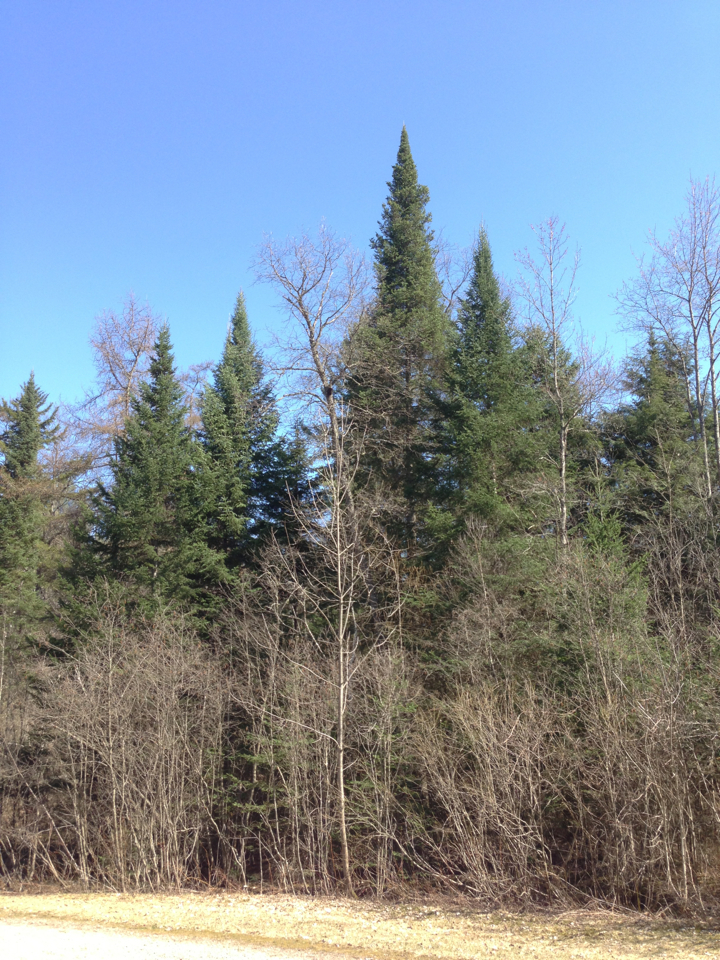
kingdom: Plantae
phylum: Tracheophyta
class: Pinopsida
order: Pinales
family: Pinaceae
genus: Abies
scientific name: Abies balsamea
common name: Balsam fir
